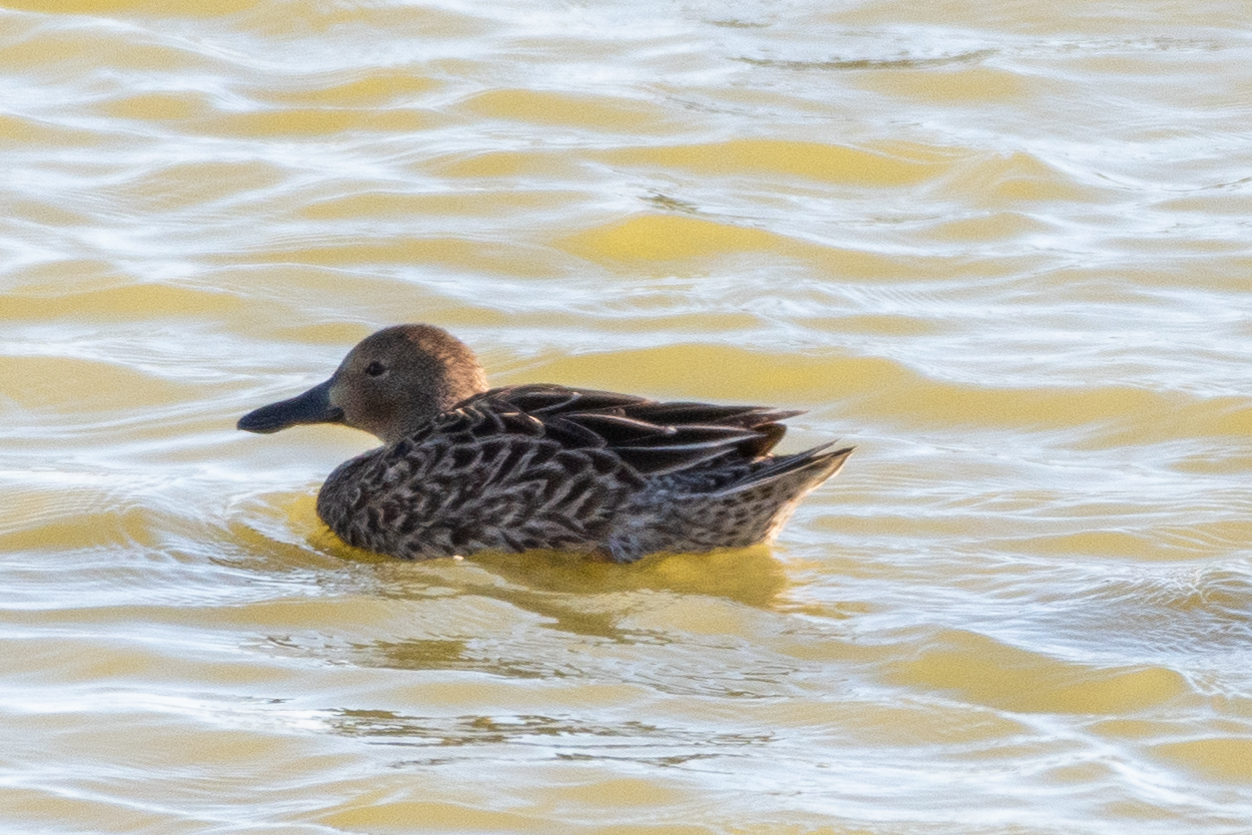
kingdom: Animalia
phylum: Chordata
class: Aves
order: Anseriformes
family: Anatidae
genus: Spatula
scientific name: Spatula cyanoptera
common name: Cinnamon teal
